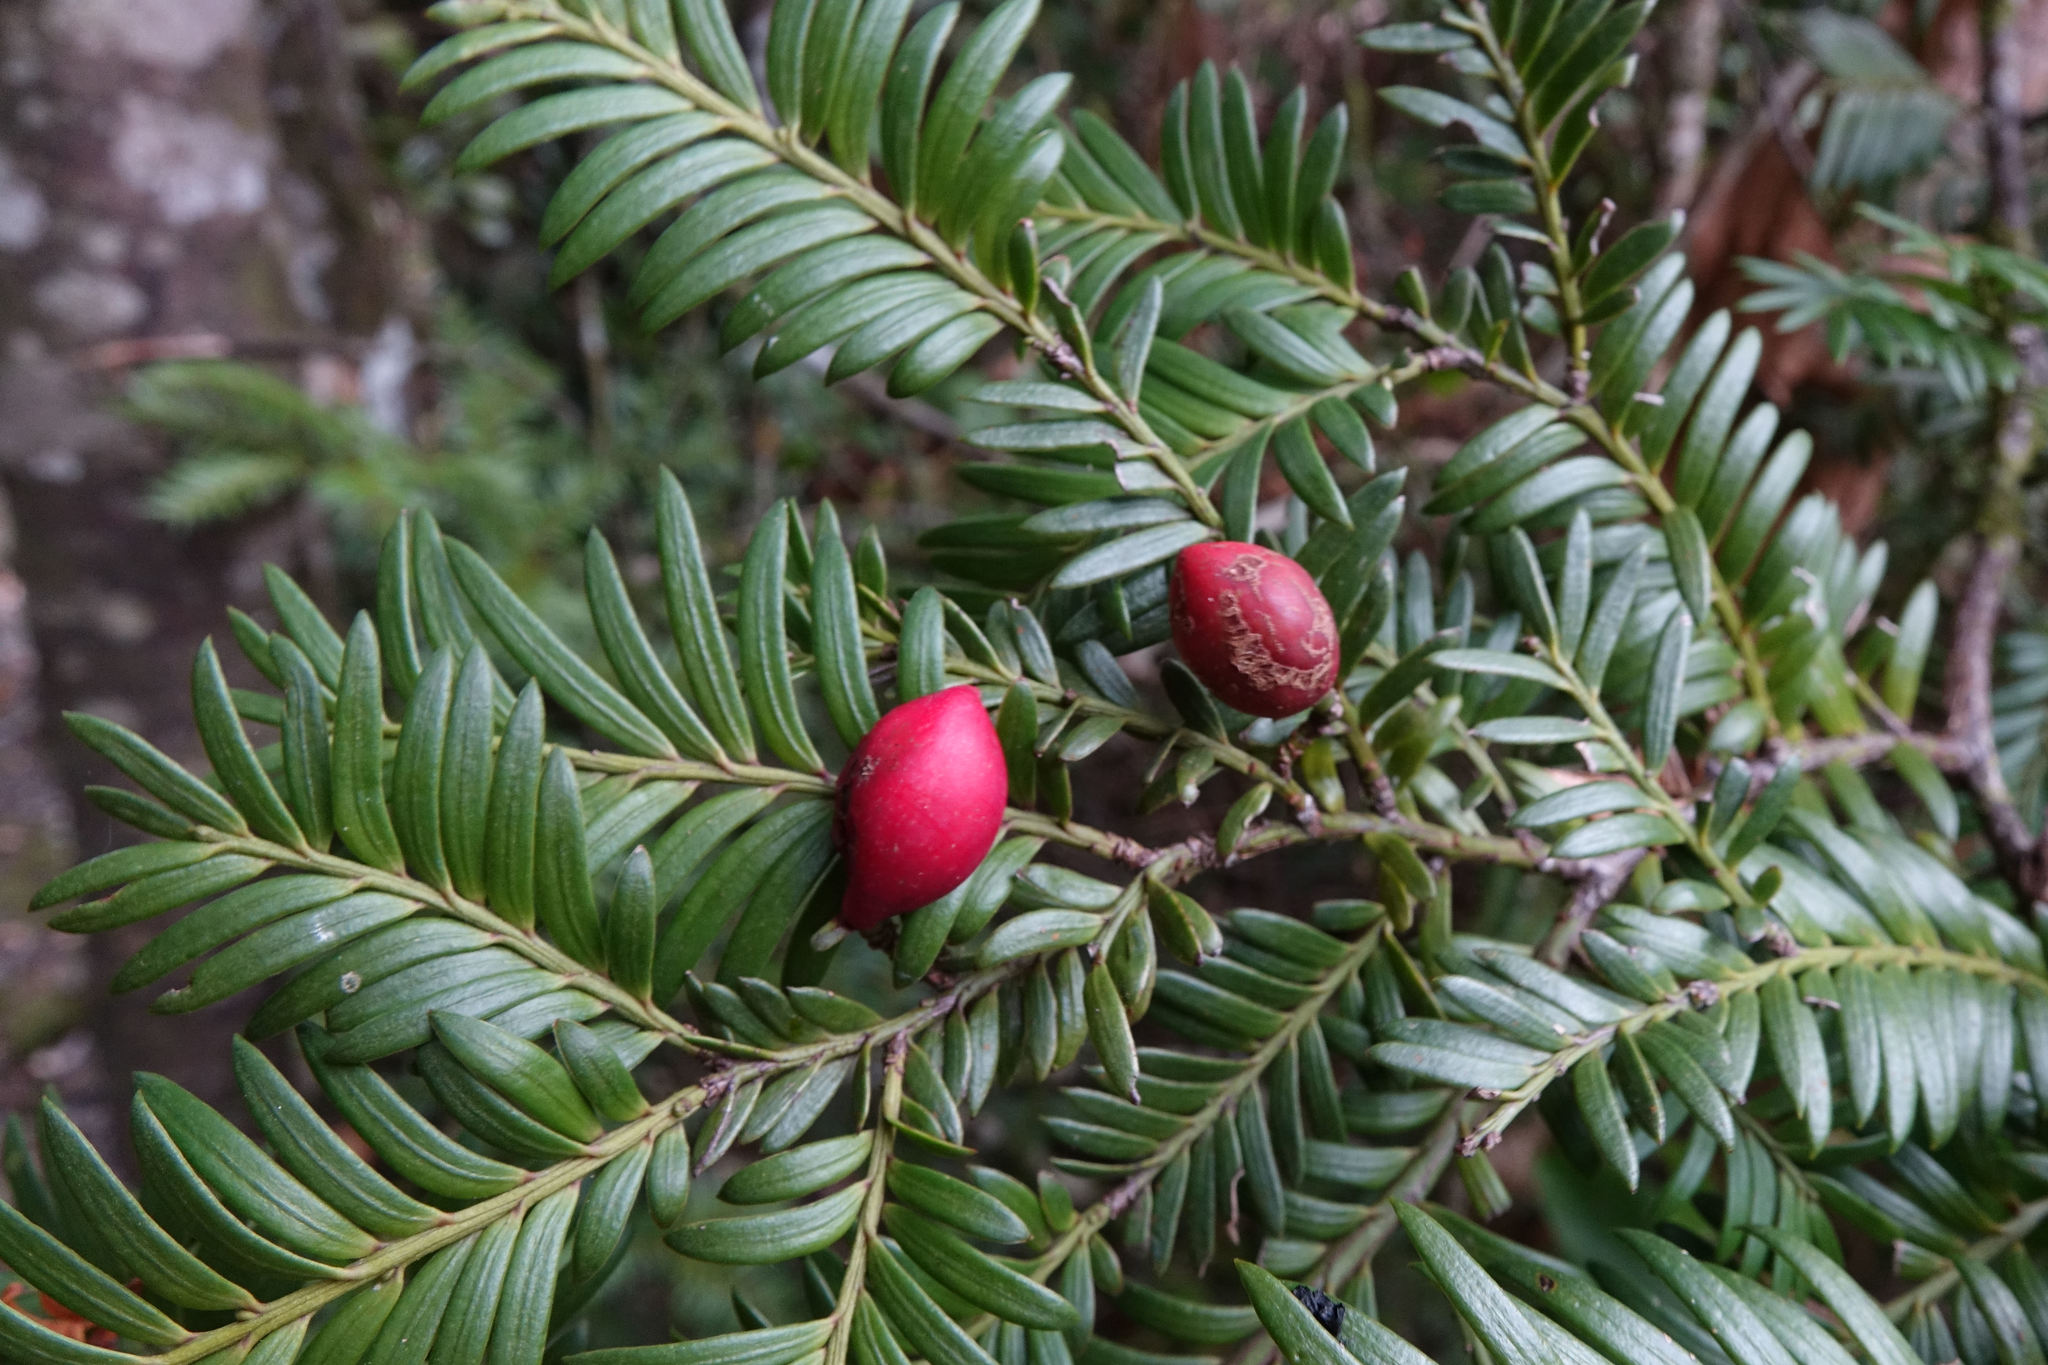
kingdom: Plantae
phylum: Tracheophyta
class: Pinopsida
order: Pinales
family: Podocarpaceae
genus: Prumnopitys
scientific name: Prumnopitys ferruginea
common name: Brown pine
